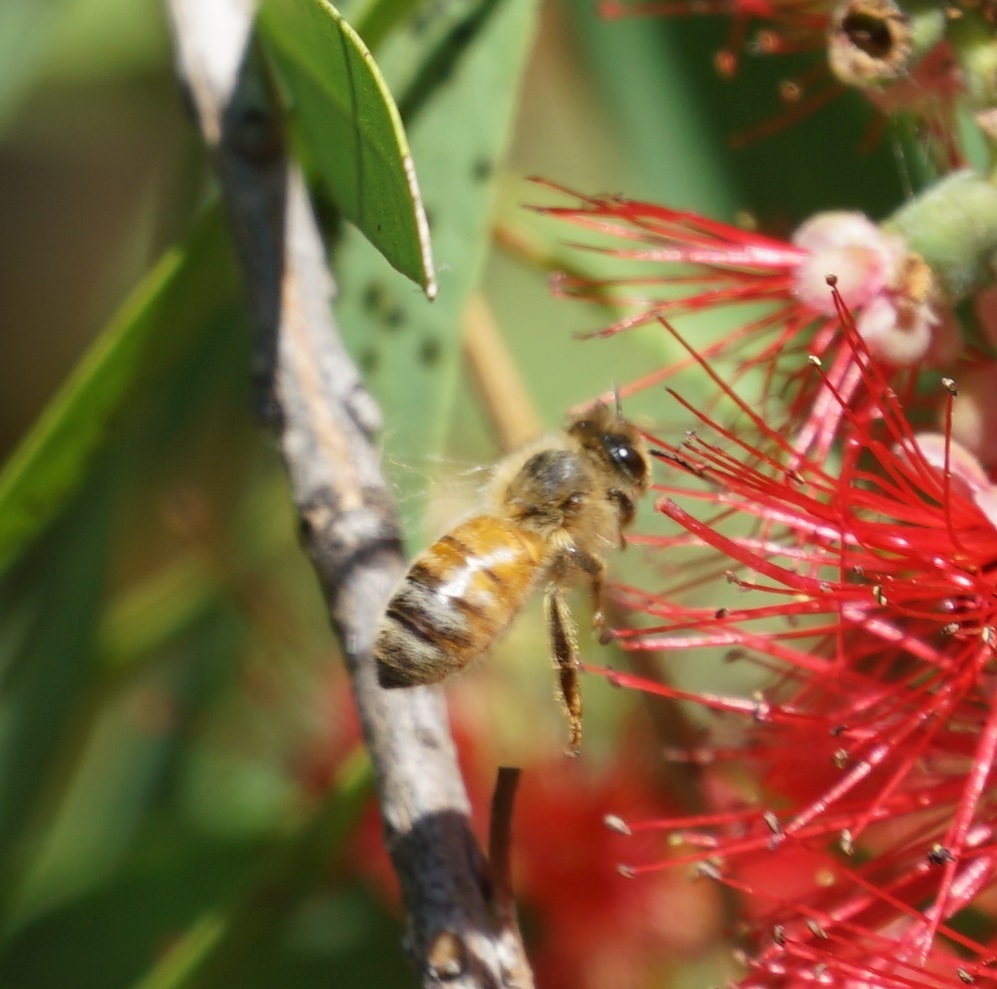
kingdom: Animalia
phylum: Arthropoda
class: Insecta
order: Hymenoptera
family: Apidae
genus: Apis
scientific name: Apis mellifera
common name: Honey bee
